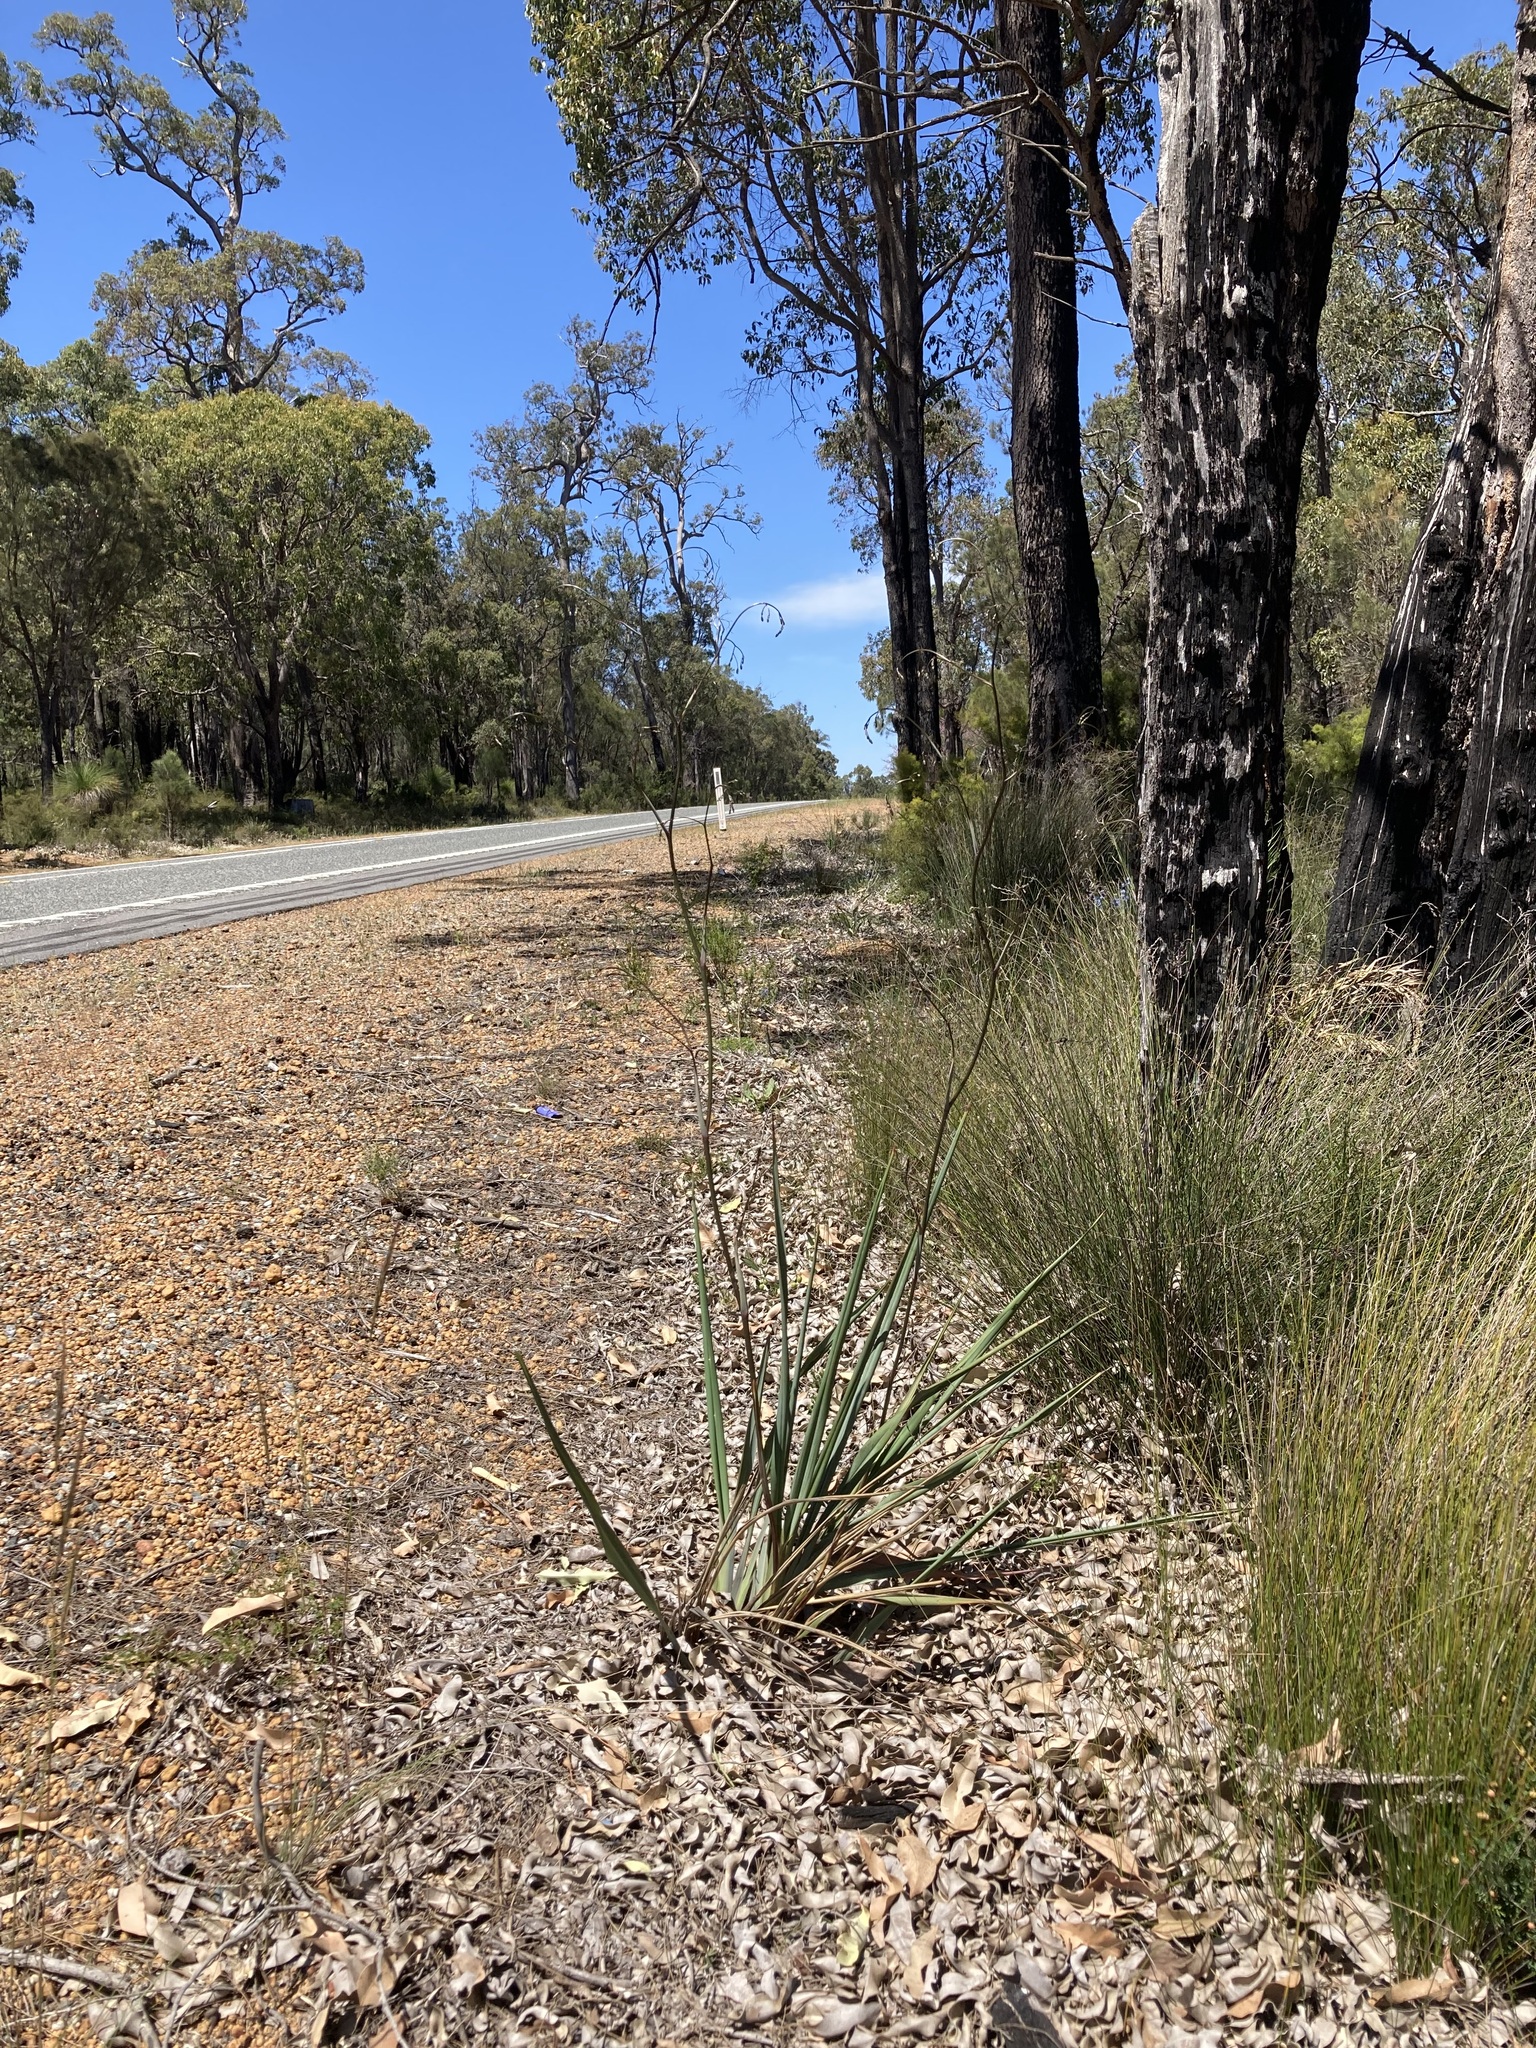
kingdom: Plantae
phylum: Tracheophyta
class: Liliopsida
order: Asparagales
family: Asphodelaceae
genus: Dianella
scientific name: Dianella revoluta
